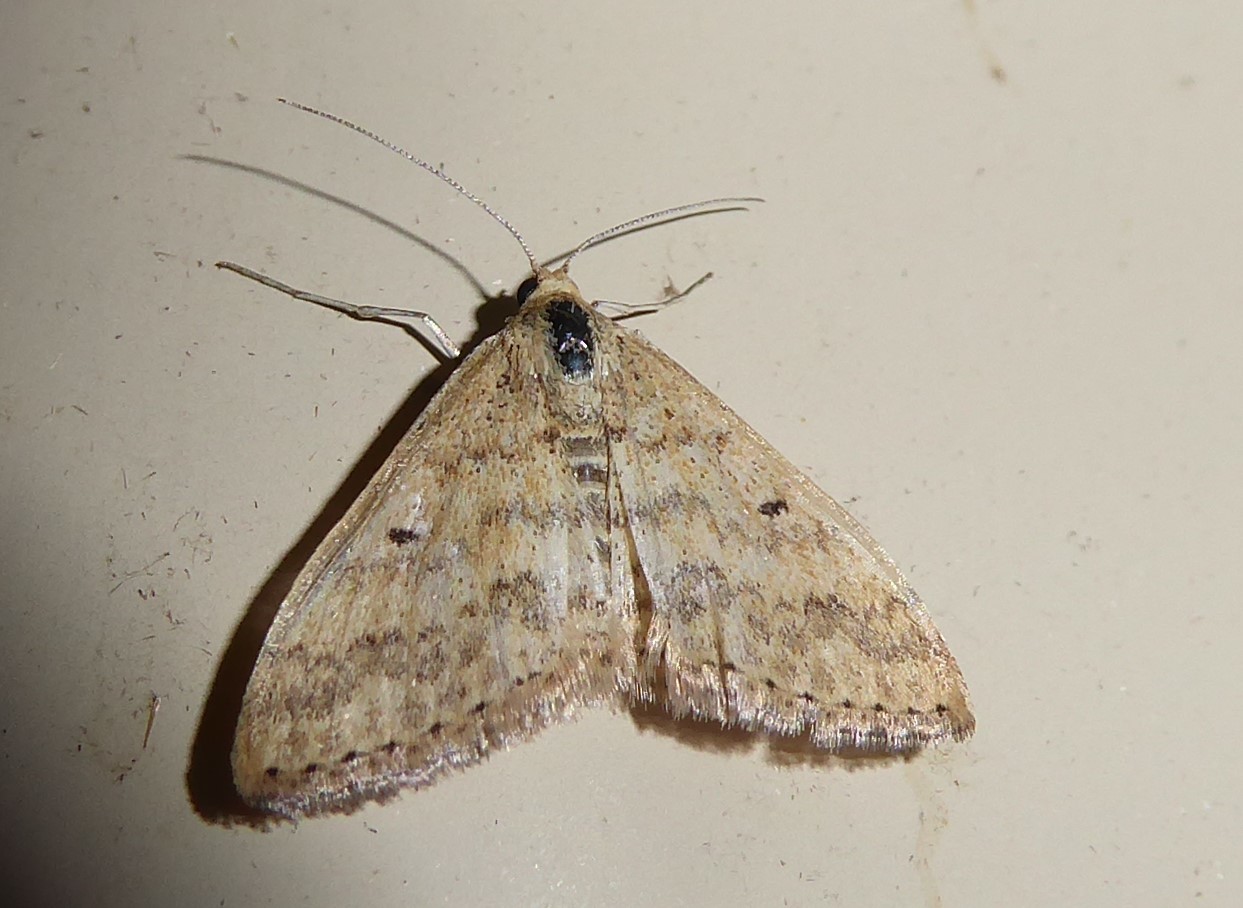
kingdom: Animalia
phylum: Arthropoda
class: Insecta
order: Lepidoptera
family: Geometridae
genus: Scopula
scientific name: Scopula rubraria
